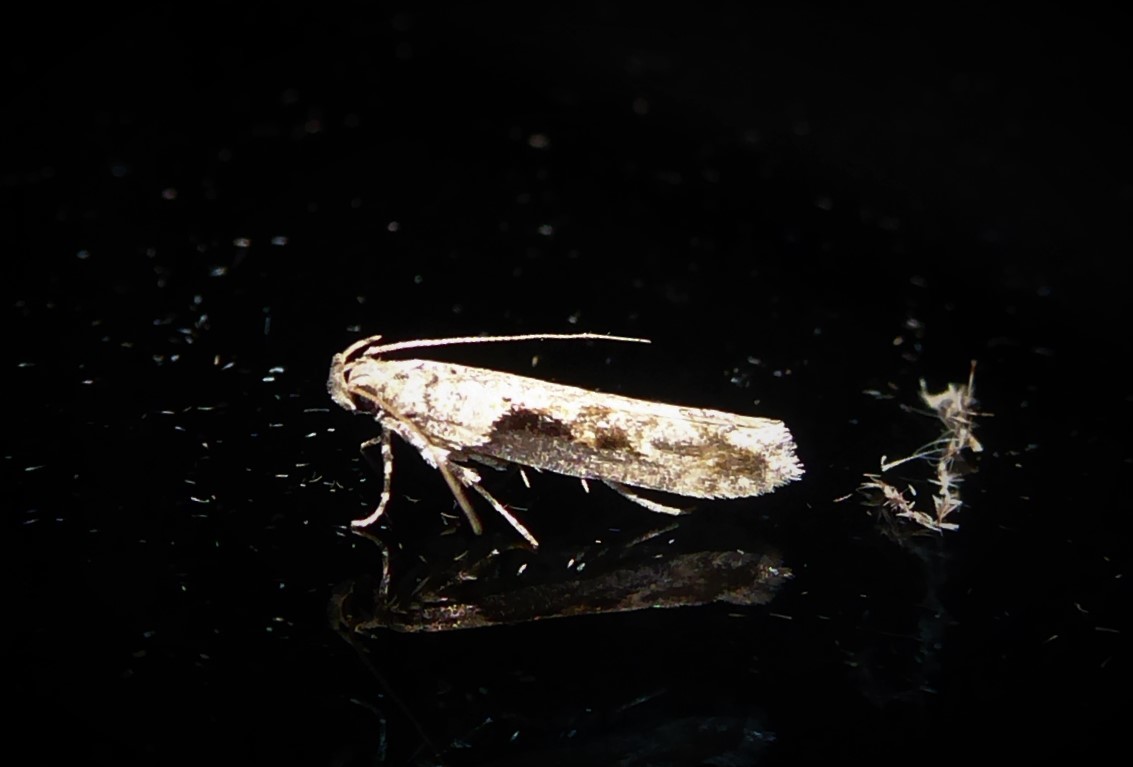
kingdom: Animalia
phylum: Arthropoda
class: Insecta
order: Lepidoptera
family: Gelechiidae
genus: Symmetrischema
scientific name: Symmetrischema tangolias
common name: Moth
